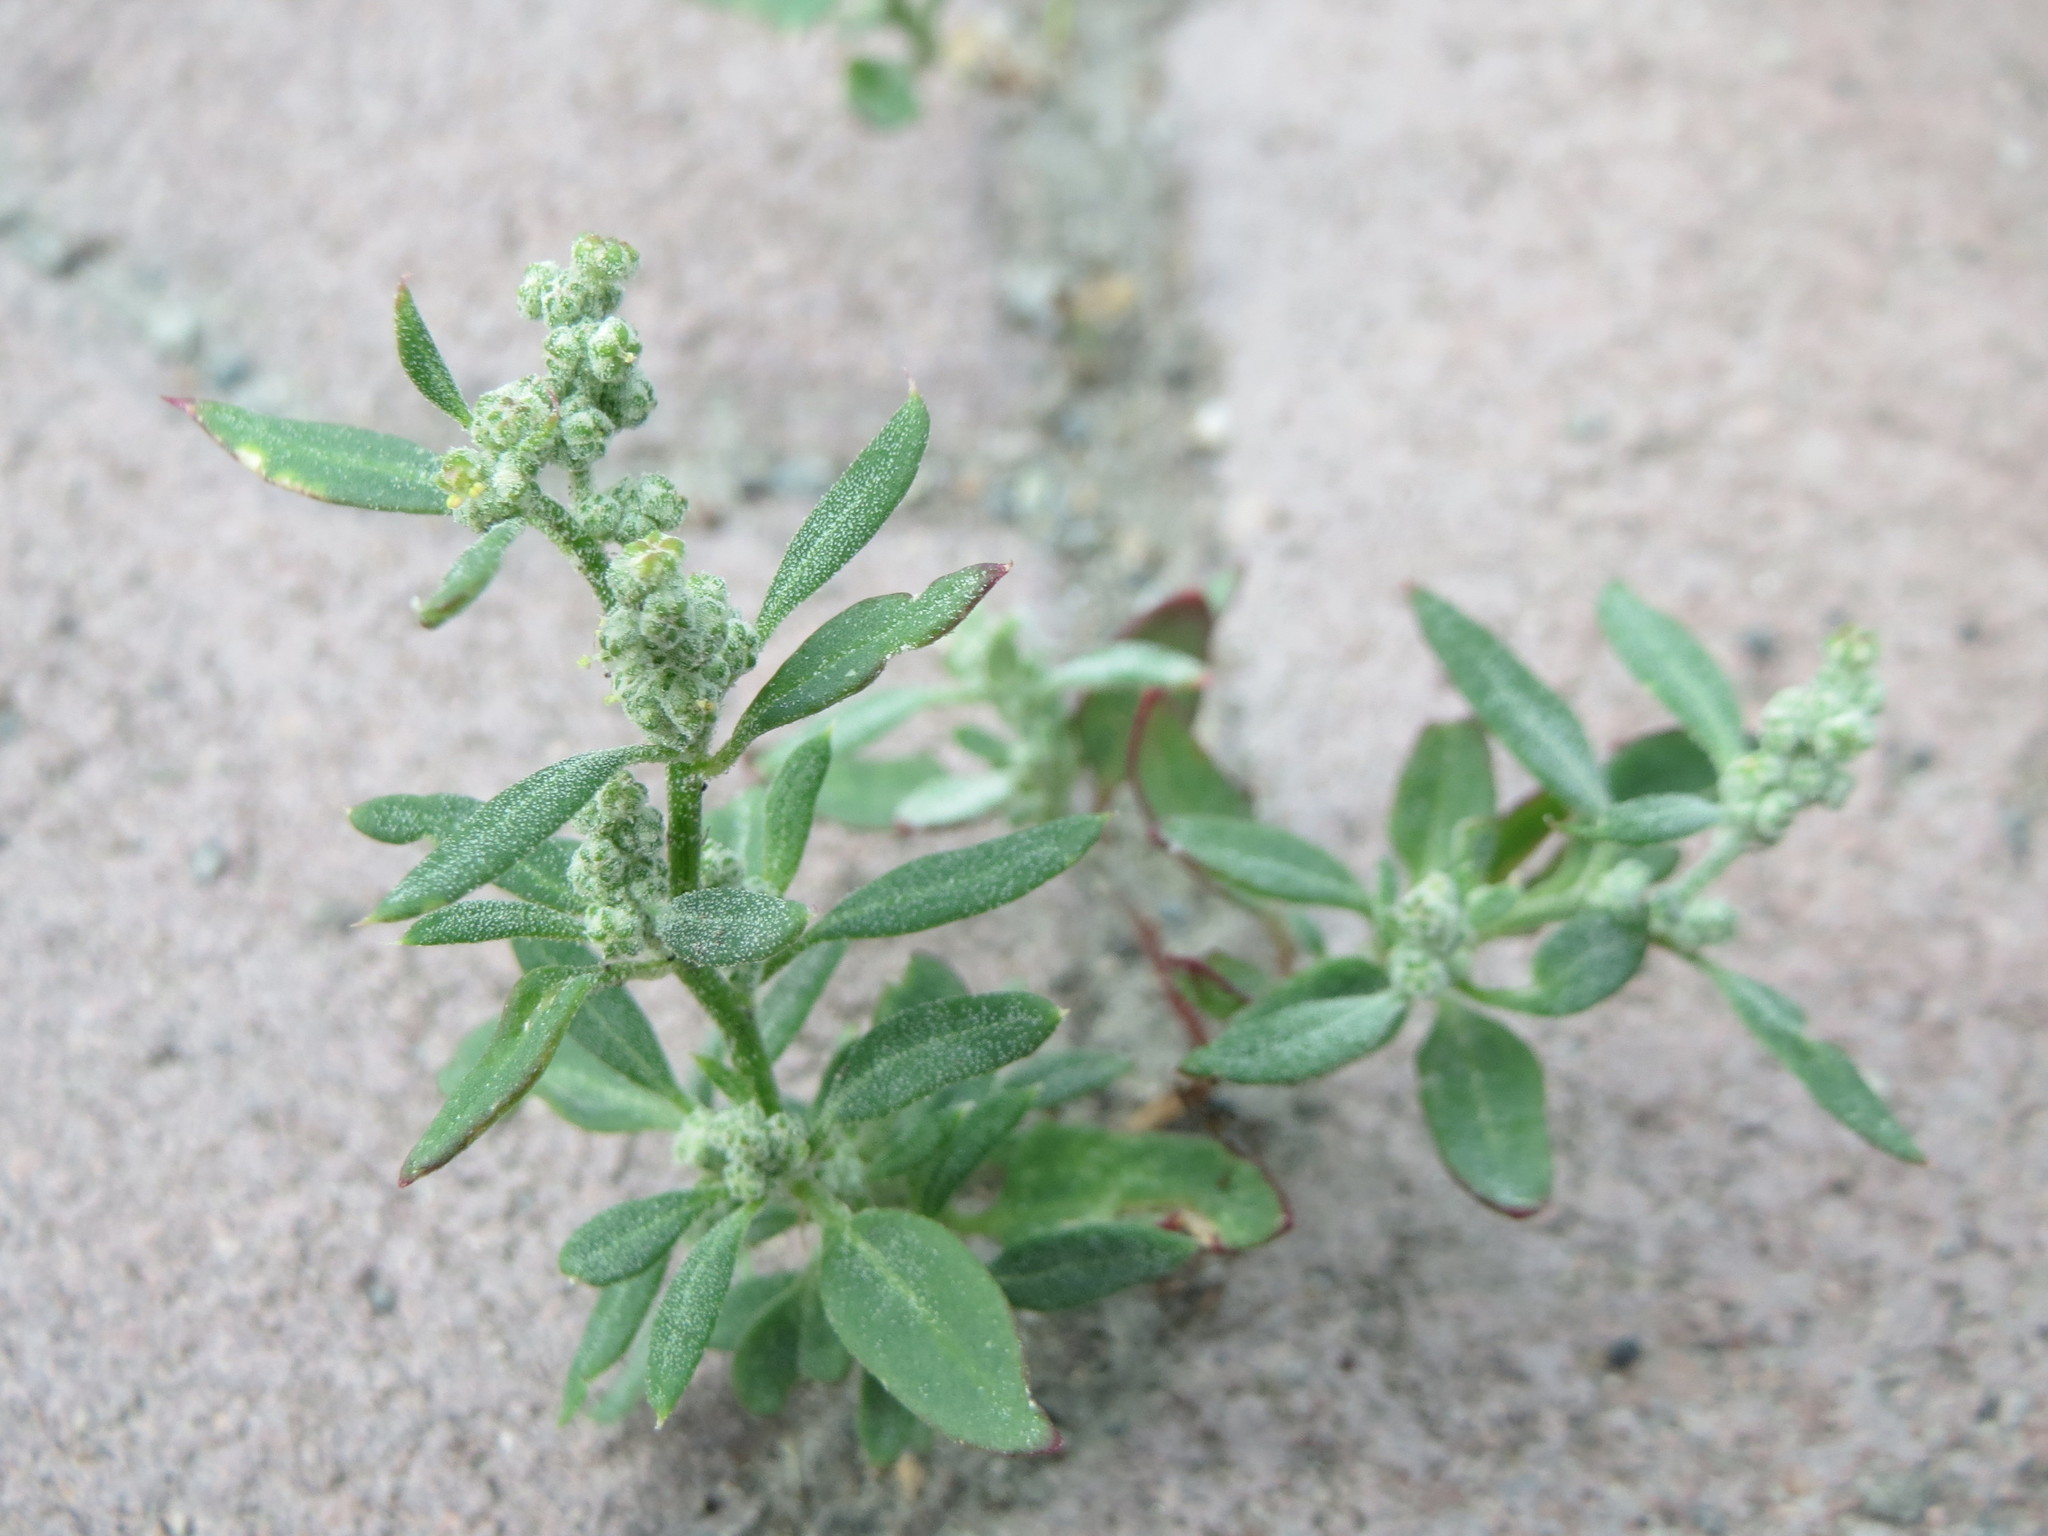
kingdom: Plantae
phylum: Tracheophyta
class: Magnoliopsida
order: Caryophyllales
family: Amaranthaceae
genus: Chenopodium
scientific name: Chenopodium album
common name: Fat-hen
